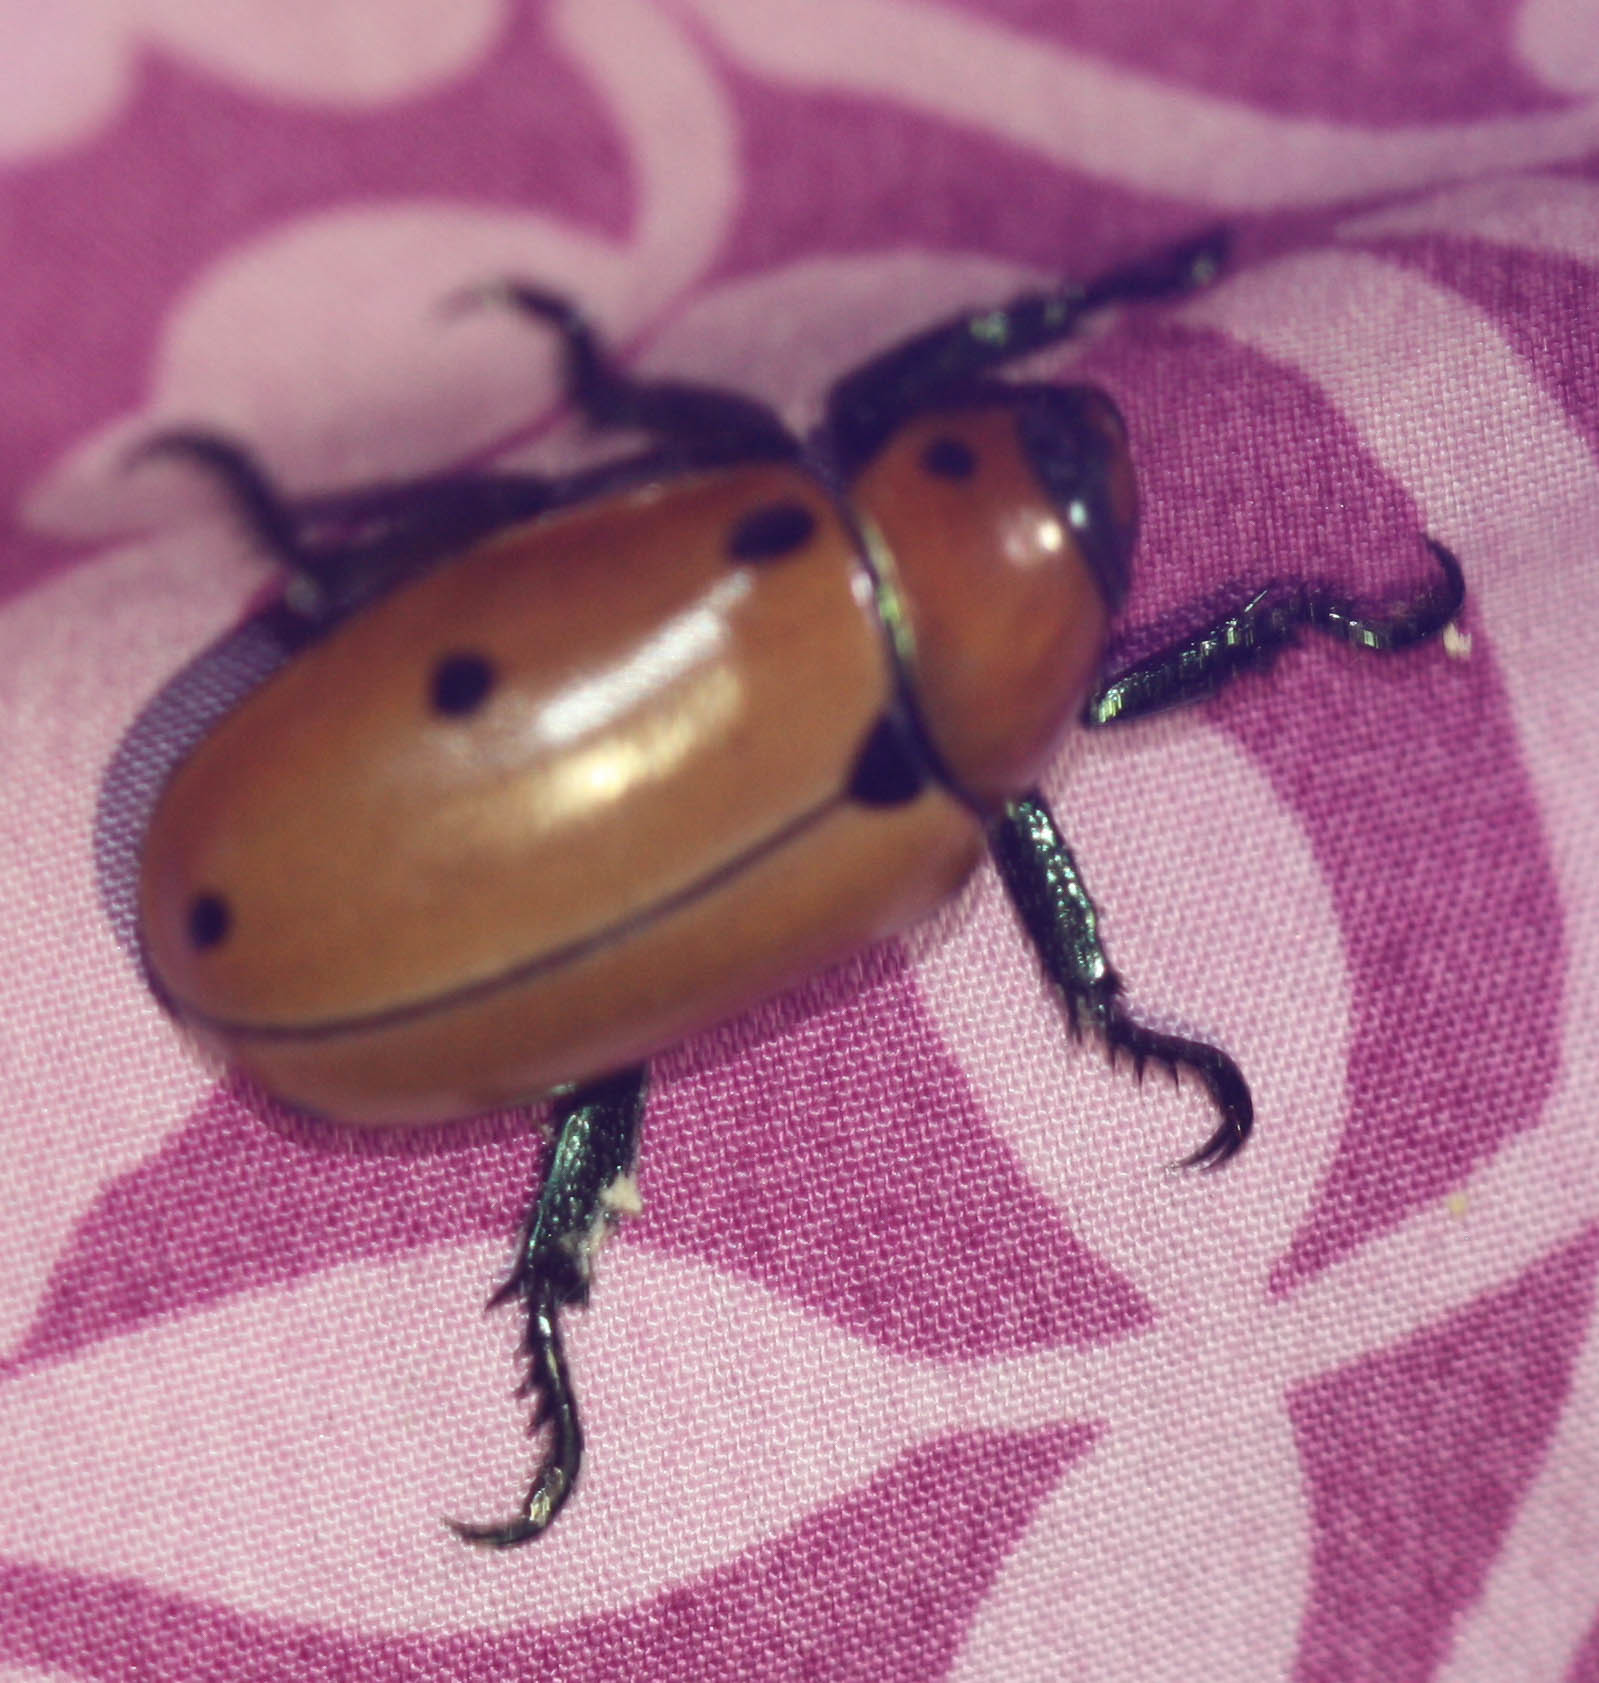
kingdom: Animalia
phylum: Arthropoda
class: Insecta
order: Coleoptera
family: Scarabaeidae
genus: Pelidnota
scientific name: Pelidnota punctata
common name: Grapevine beetle
